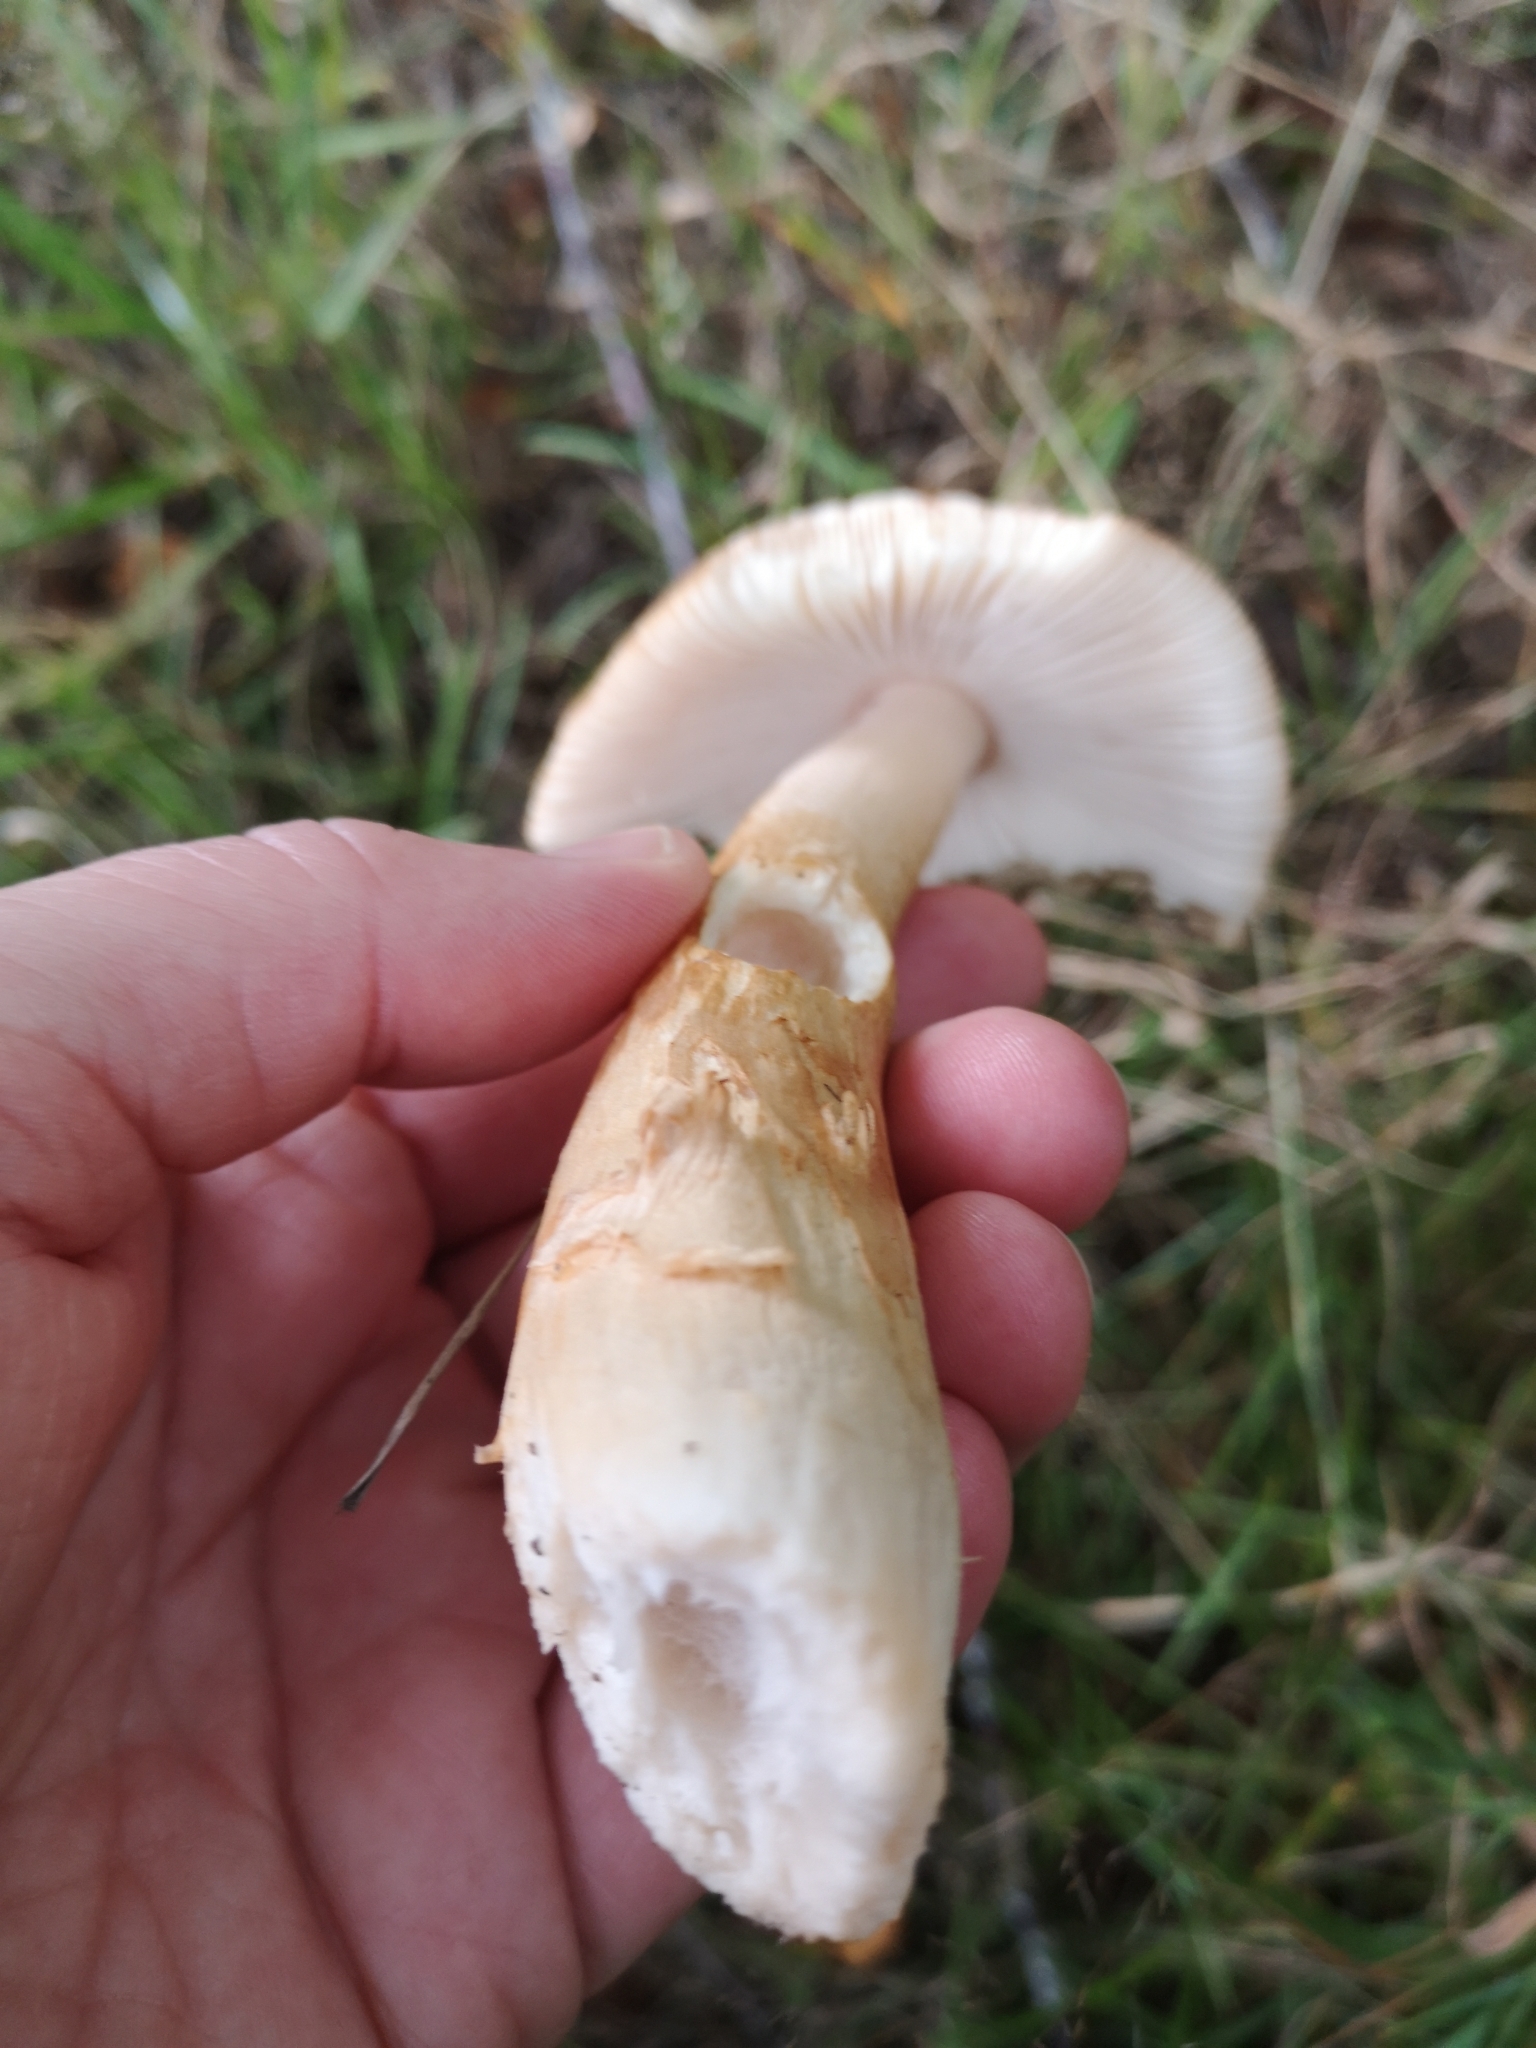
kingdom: Fungi
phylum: Basidiomycota
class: Agaricomycetes
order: Agaricales
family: Amanitaceae
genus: Amanita
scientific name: Amanita fulva
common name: Tawny grisette
